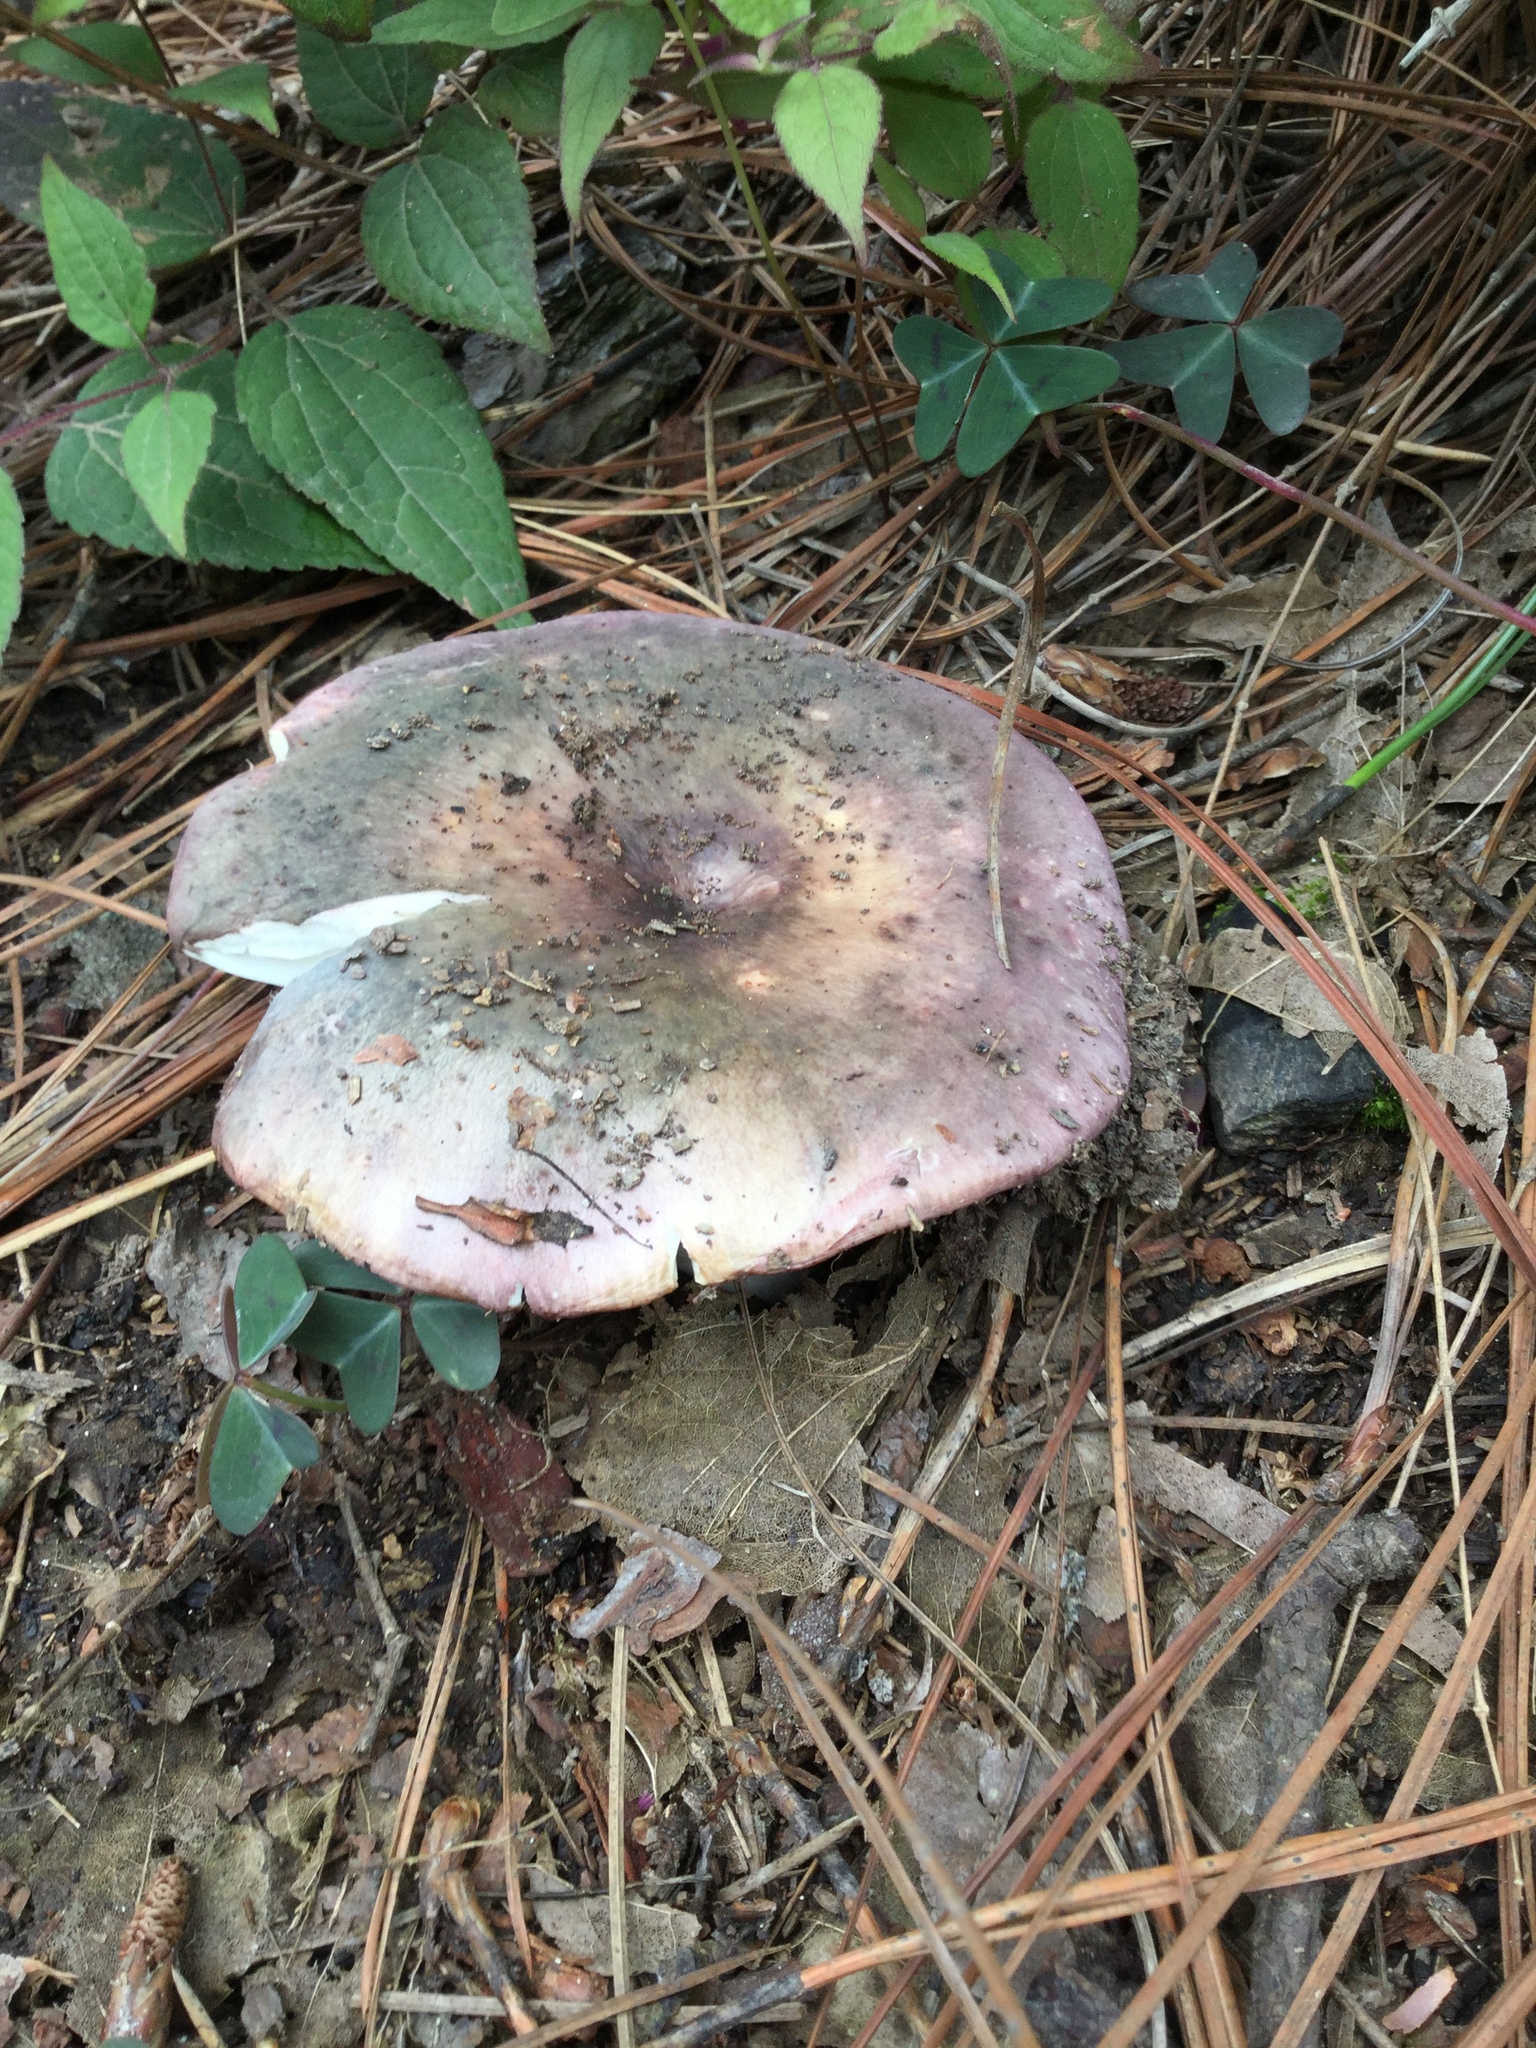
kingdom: Fungi
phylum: Basidiomycota
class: Agaricomycetes
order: Russulales
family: Russulaceae
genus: Russula
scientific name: Russula cyanoxantha
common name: Charcoal burner
